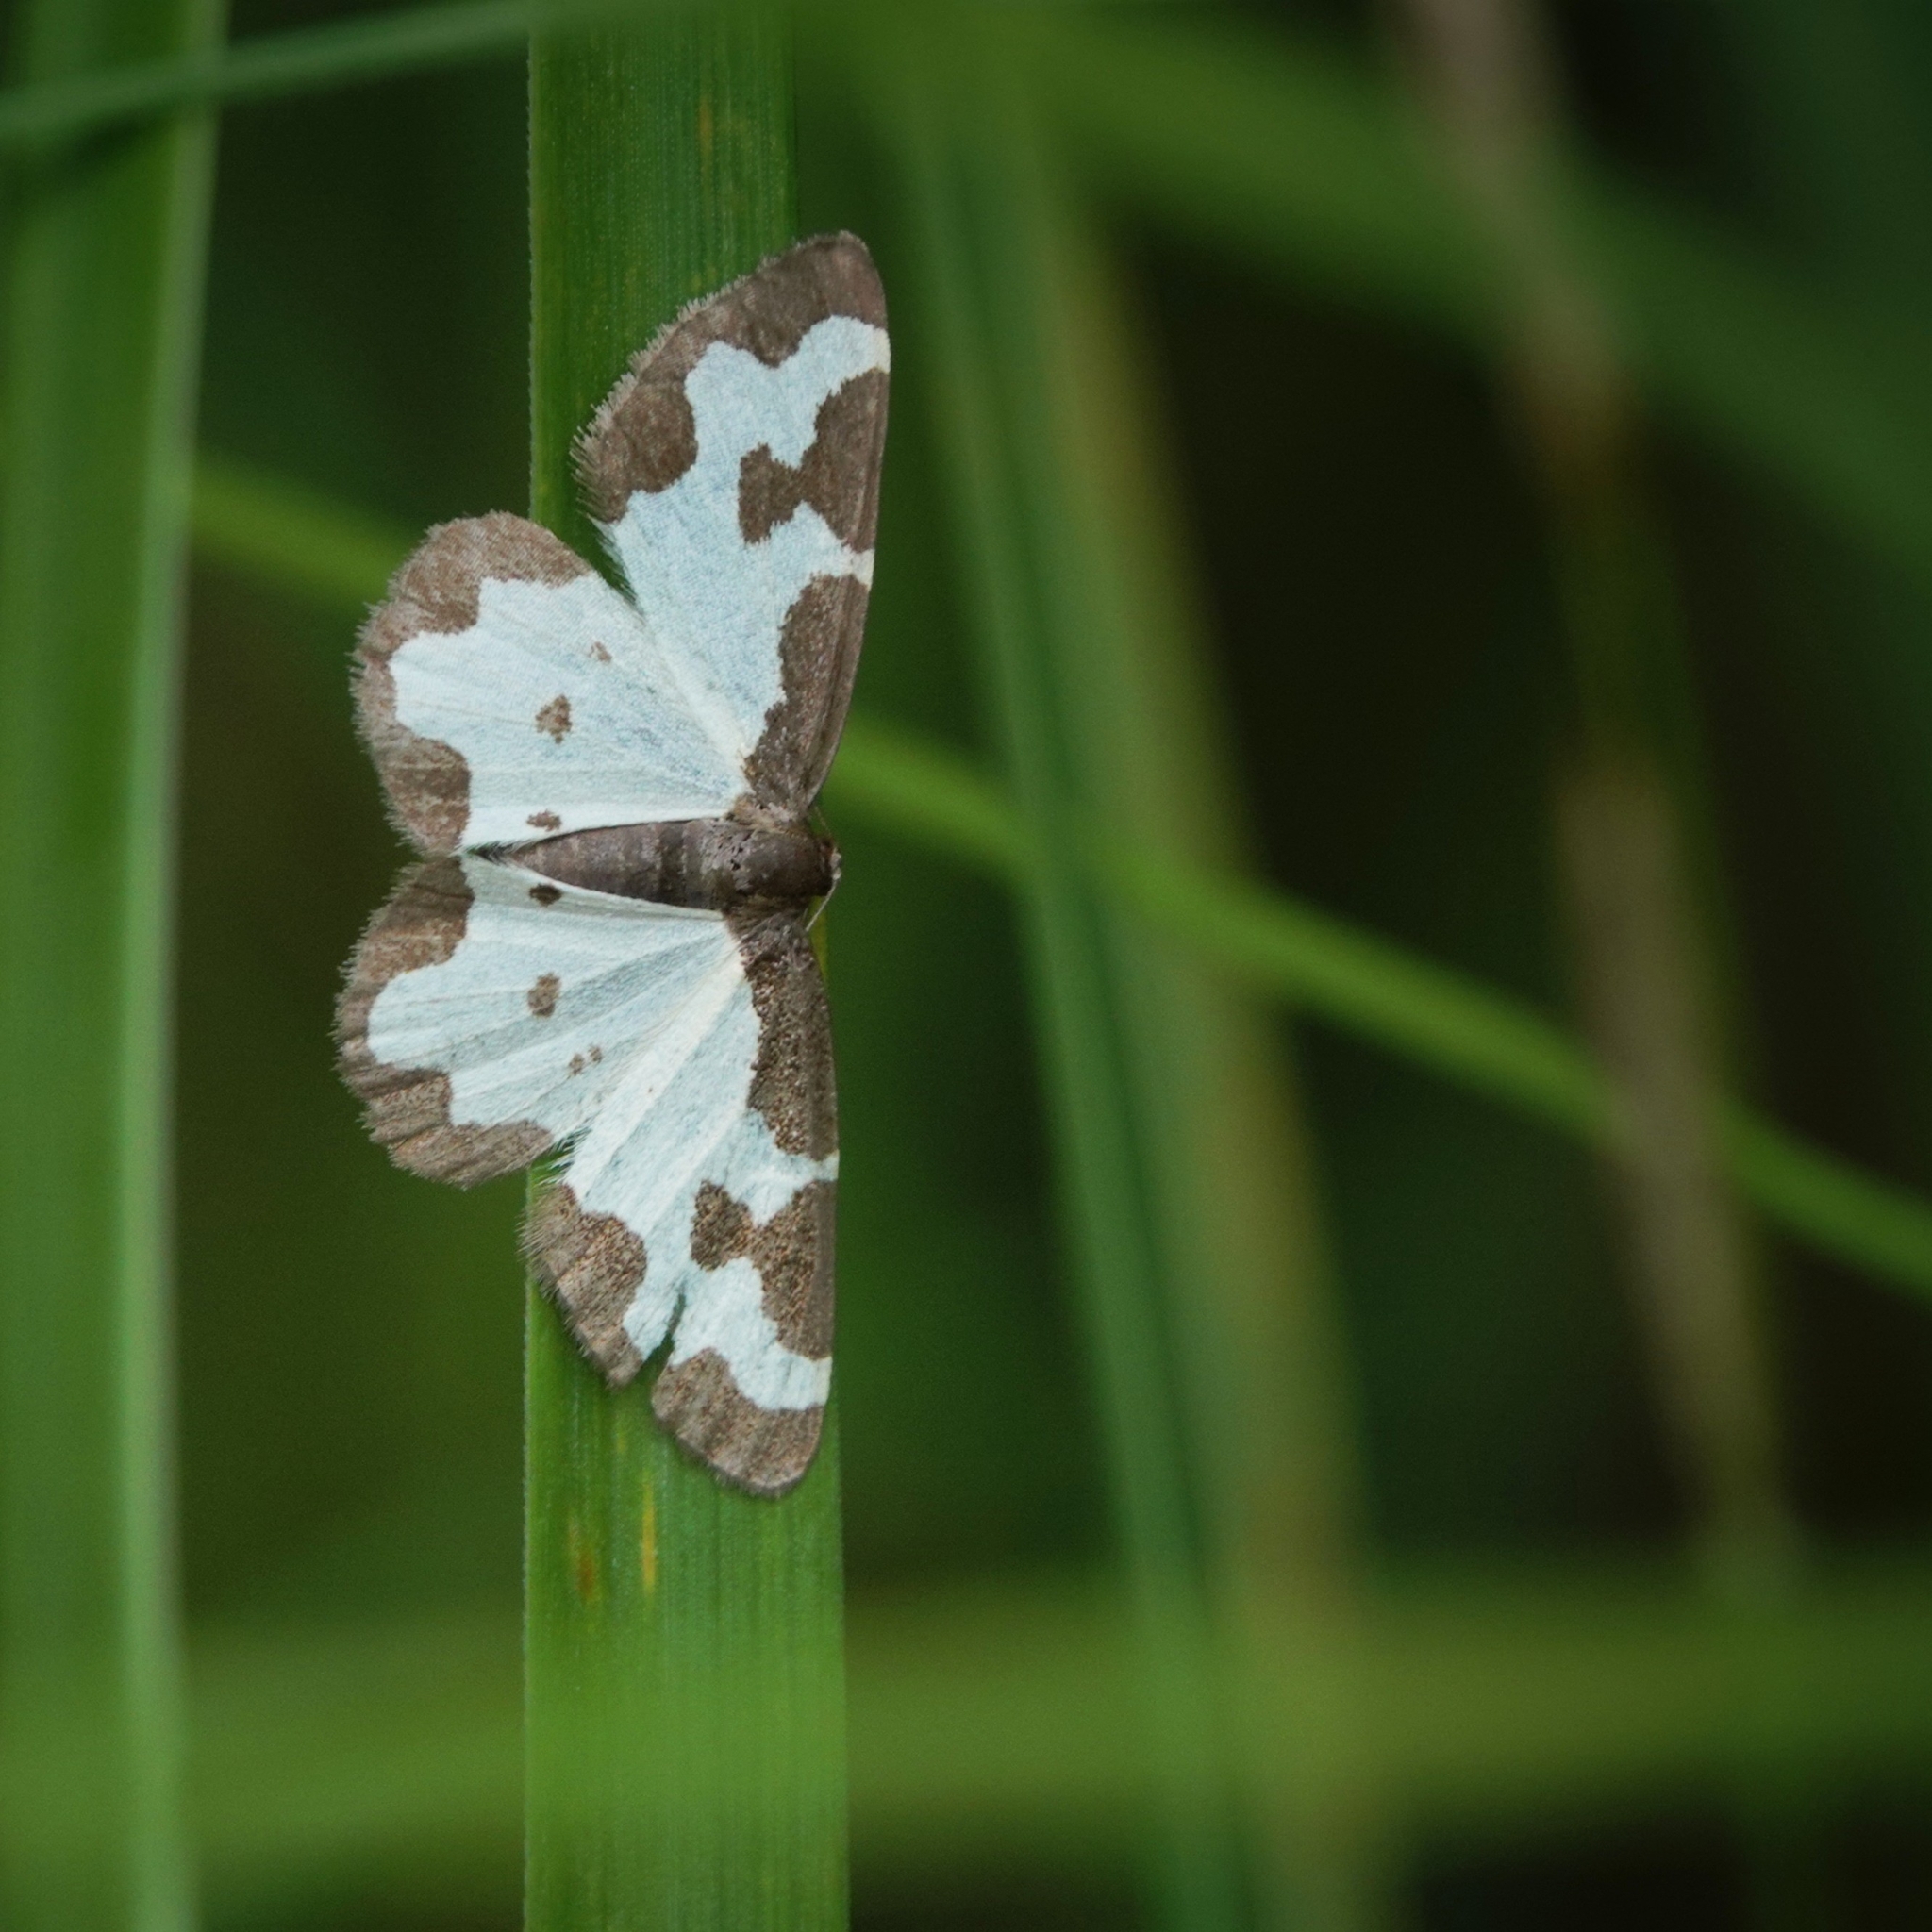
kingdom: Animalia
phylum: Arthropoda
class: Insecta
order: Lepidoptera
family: Geometridae
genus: Lomaspilis
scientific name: Lomaspilis marginata
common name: Clouded border
